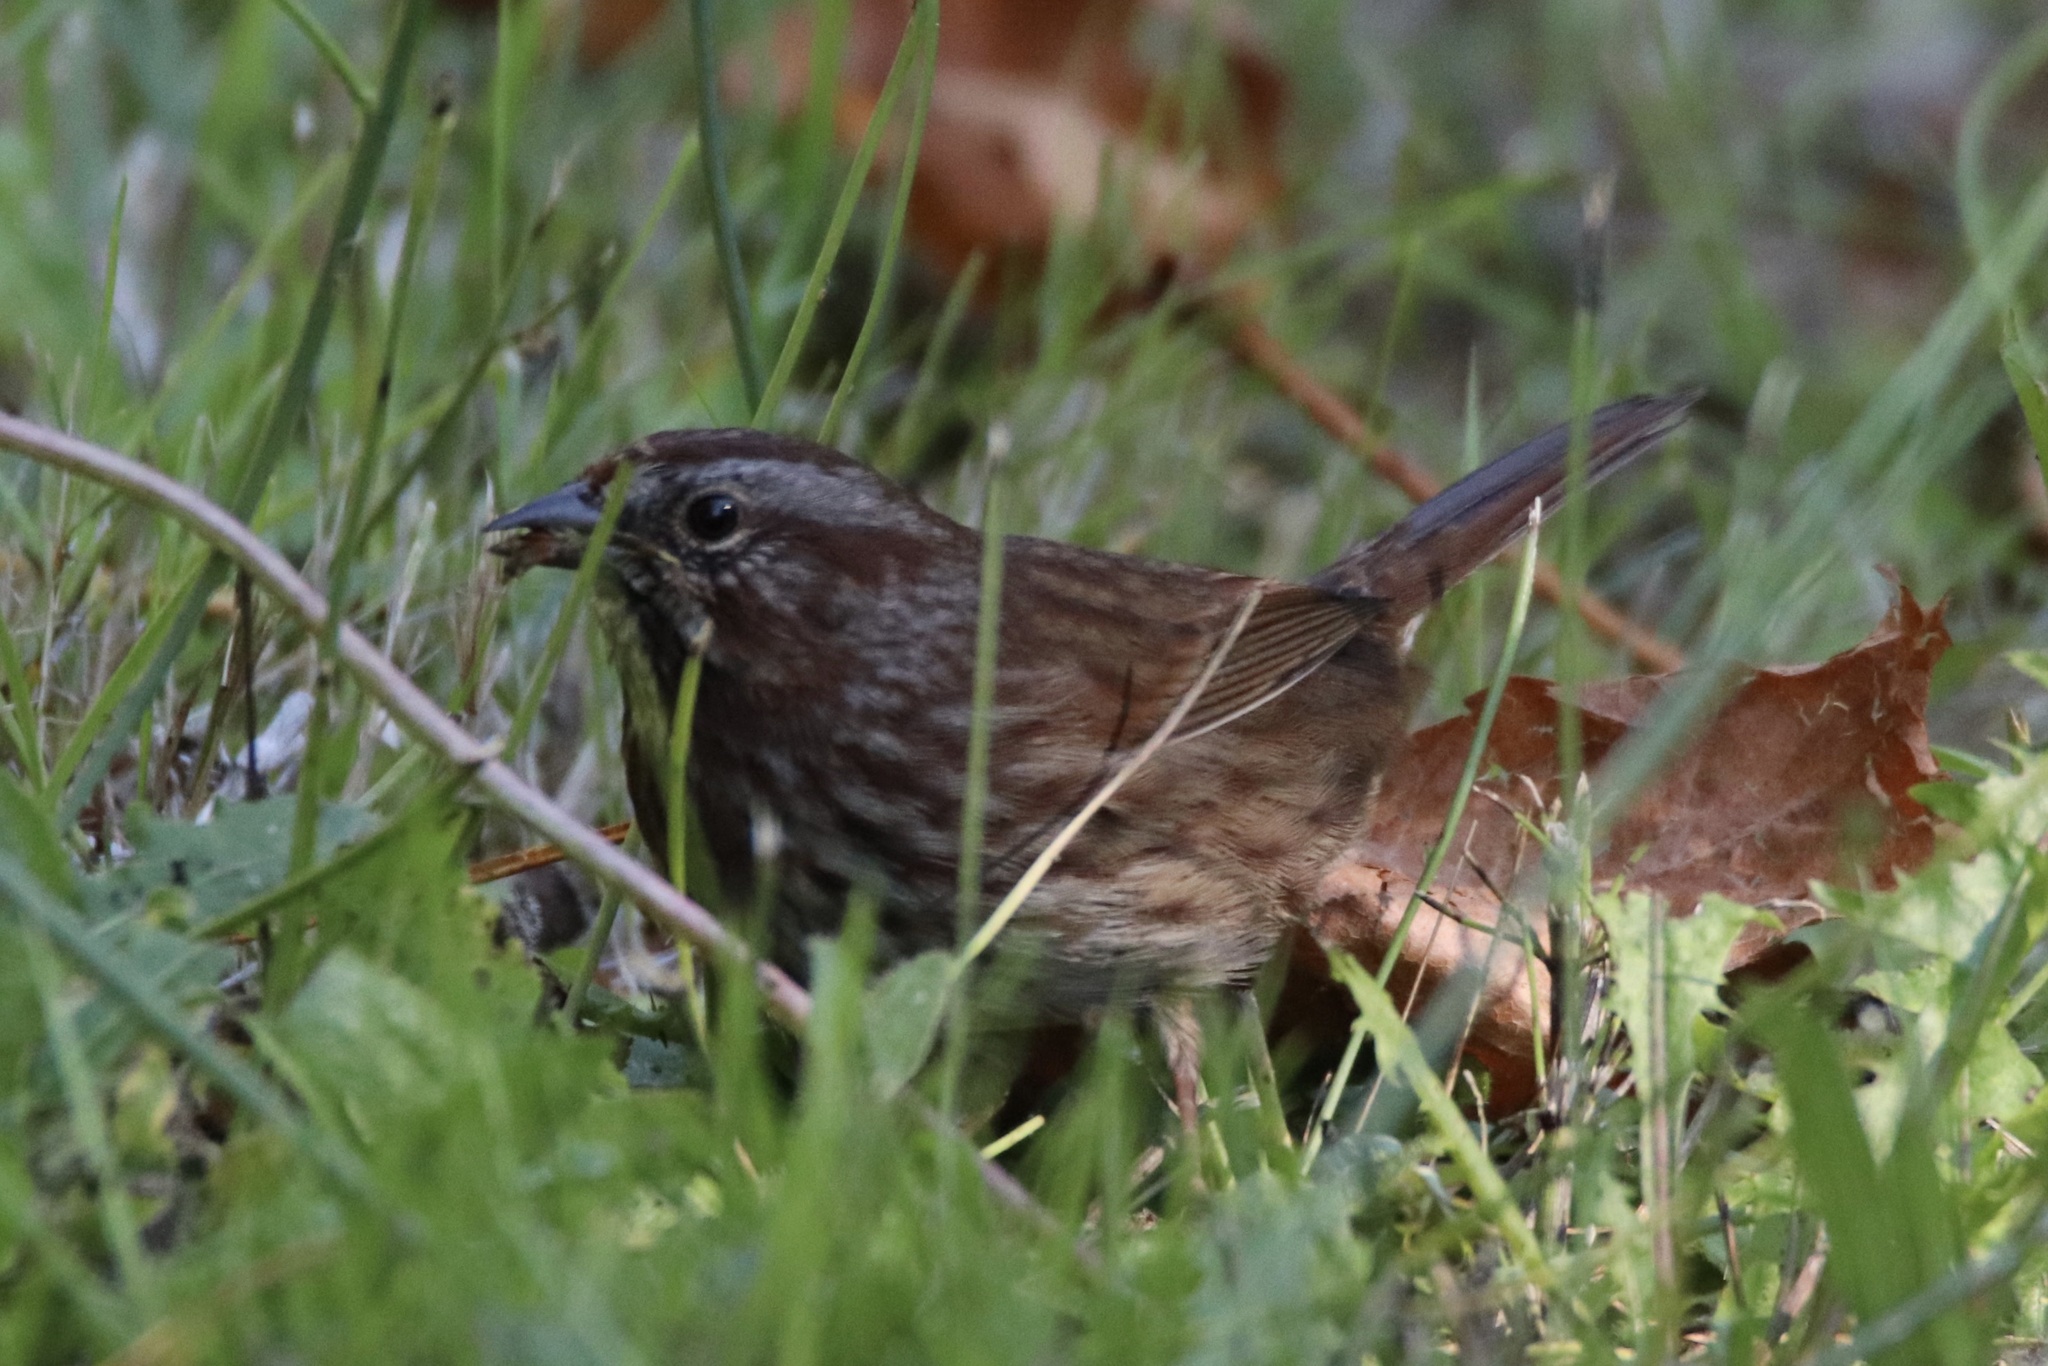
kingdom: Animalia
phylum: Chordata
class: Aves
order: Passeriformes
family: Passerellidae
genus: Melospiza
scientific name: Melospiza melodia
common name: Song sparrow
